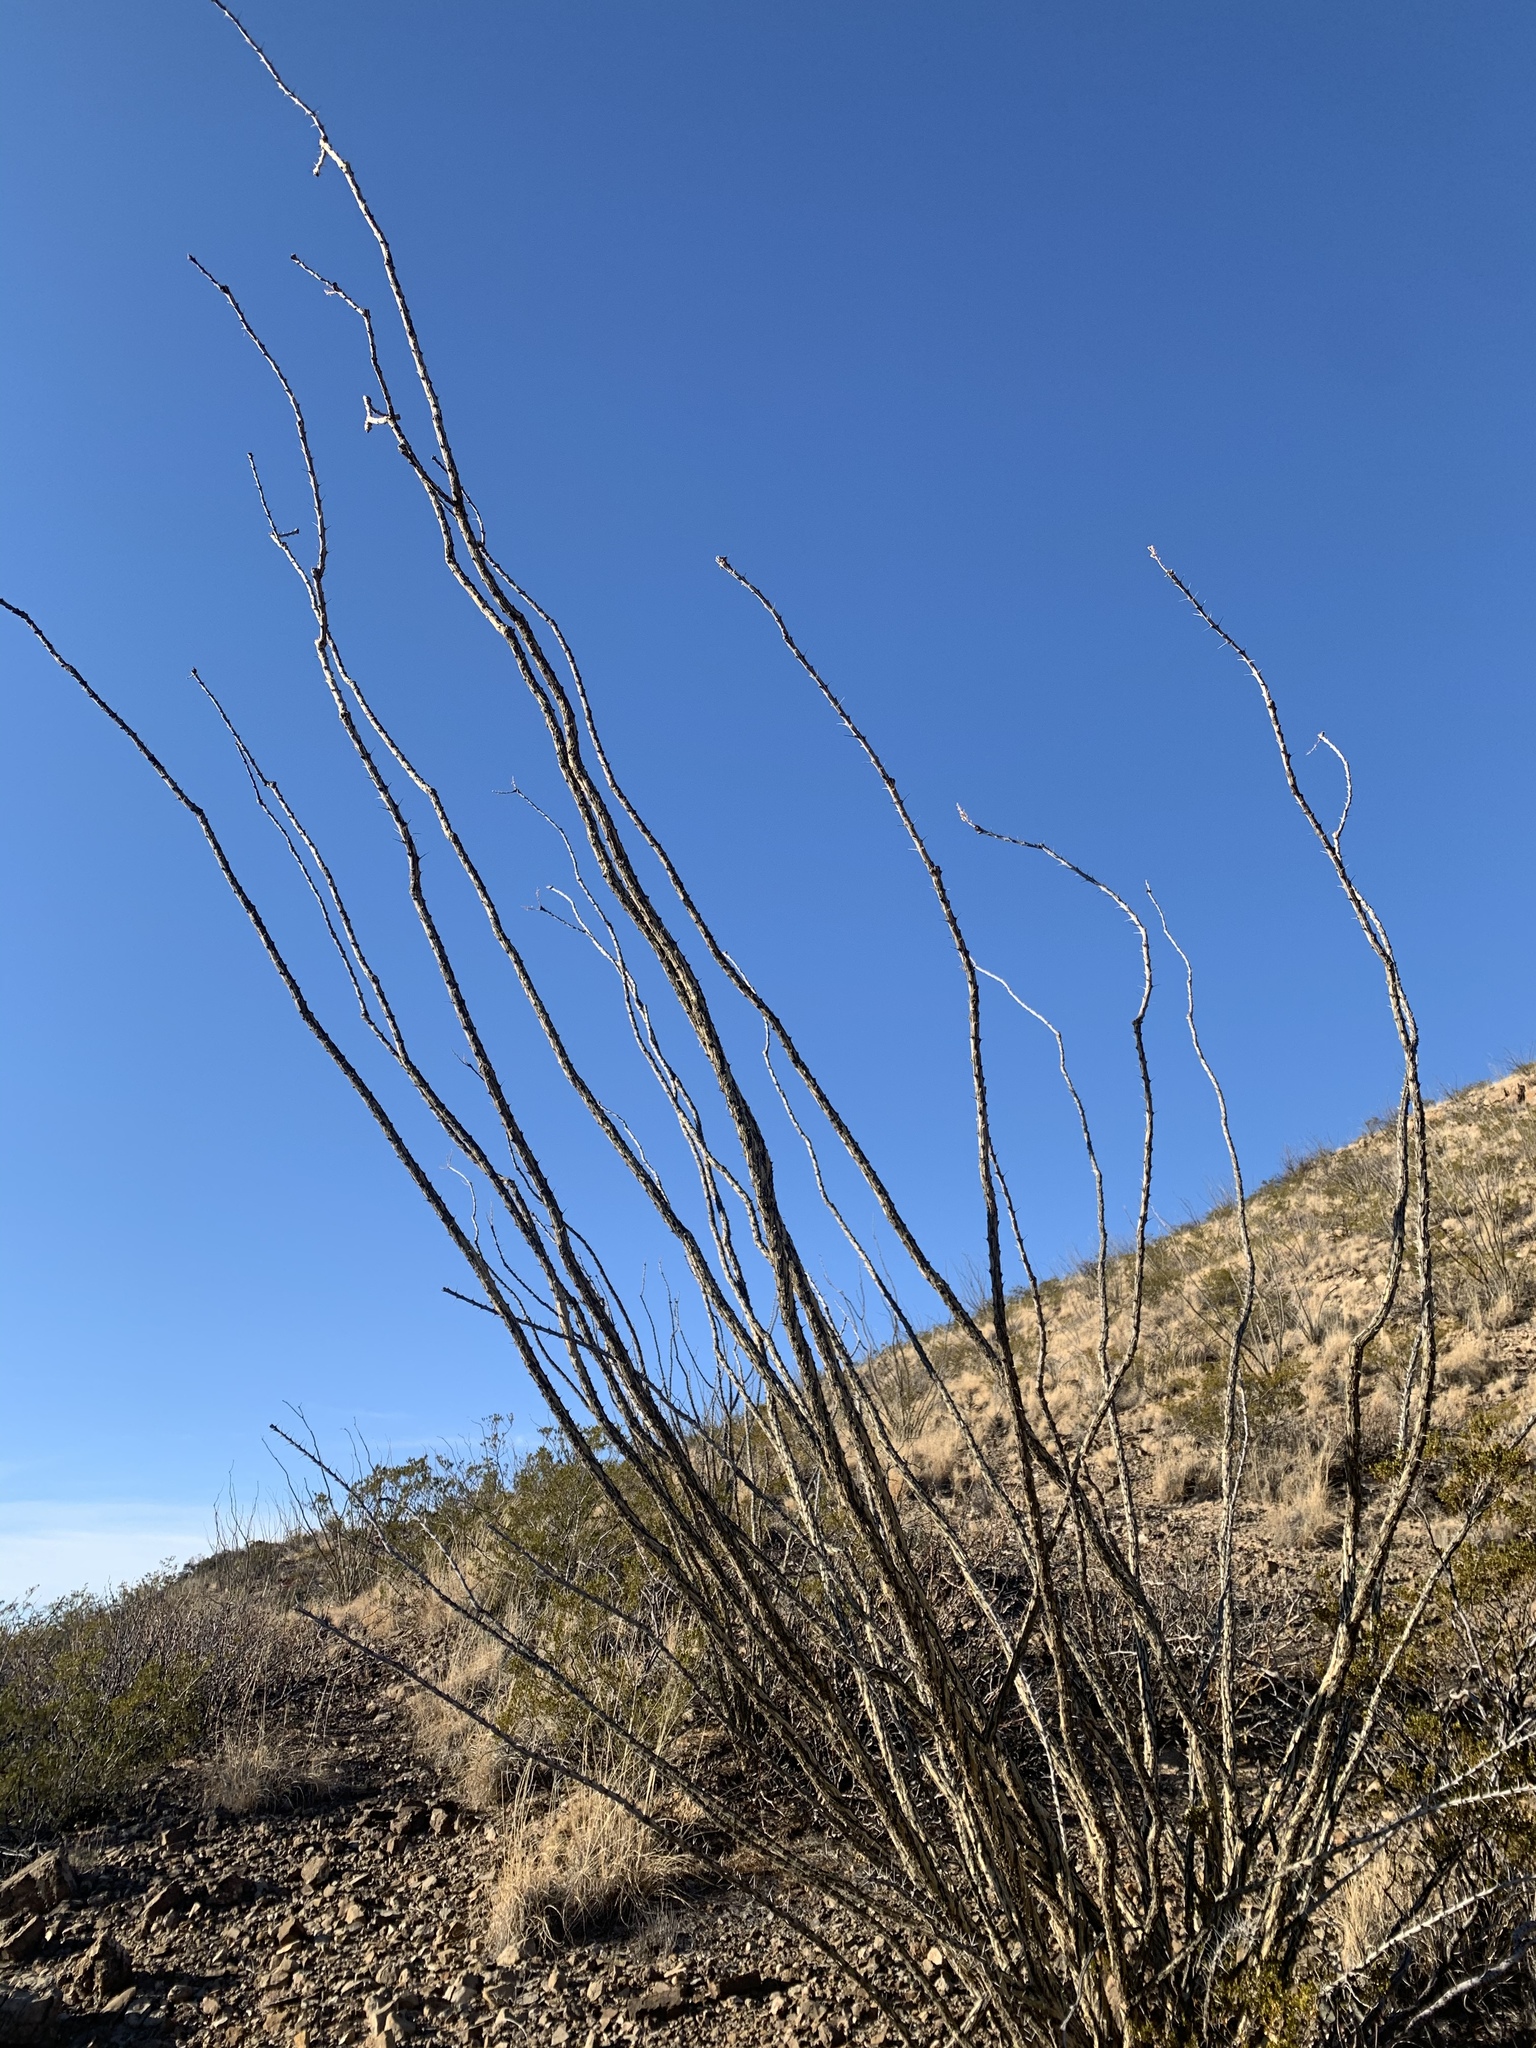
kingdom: Plantae
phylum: Tracheophyta
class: Magnoliopsida
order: Ericales
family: Fouquieriaceae
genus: Fouquieria
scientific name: Fouquieria splendens
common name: Vine-cactus
